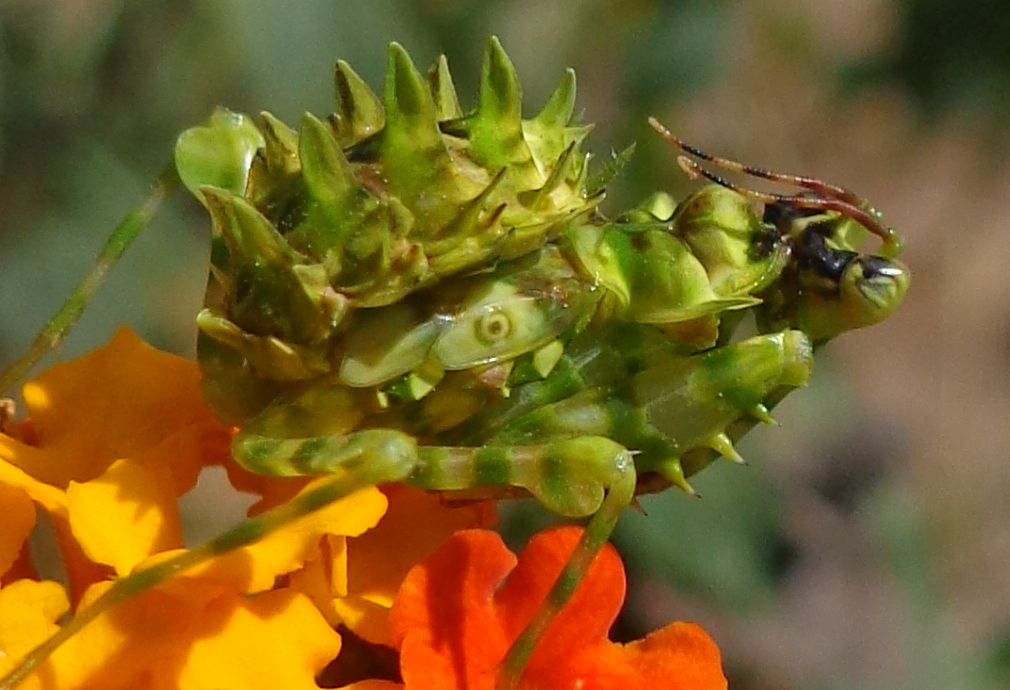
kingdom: Animalia
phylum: Arthropoda
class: Insecta
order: Mantodea
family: Hymenopodidae
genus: Pseudocreobotra
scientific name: Pseudocreobotra wahlbergi
